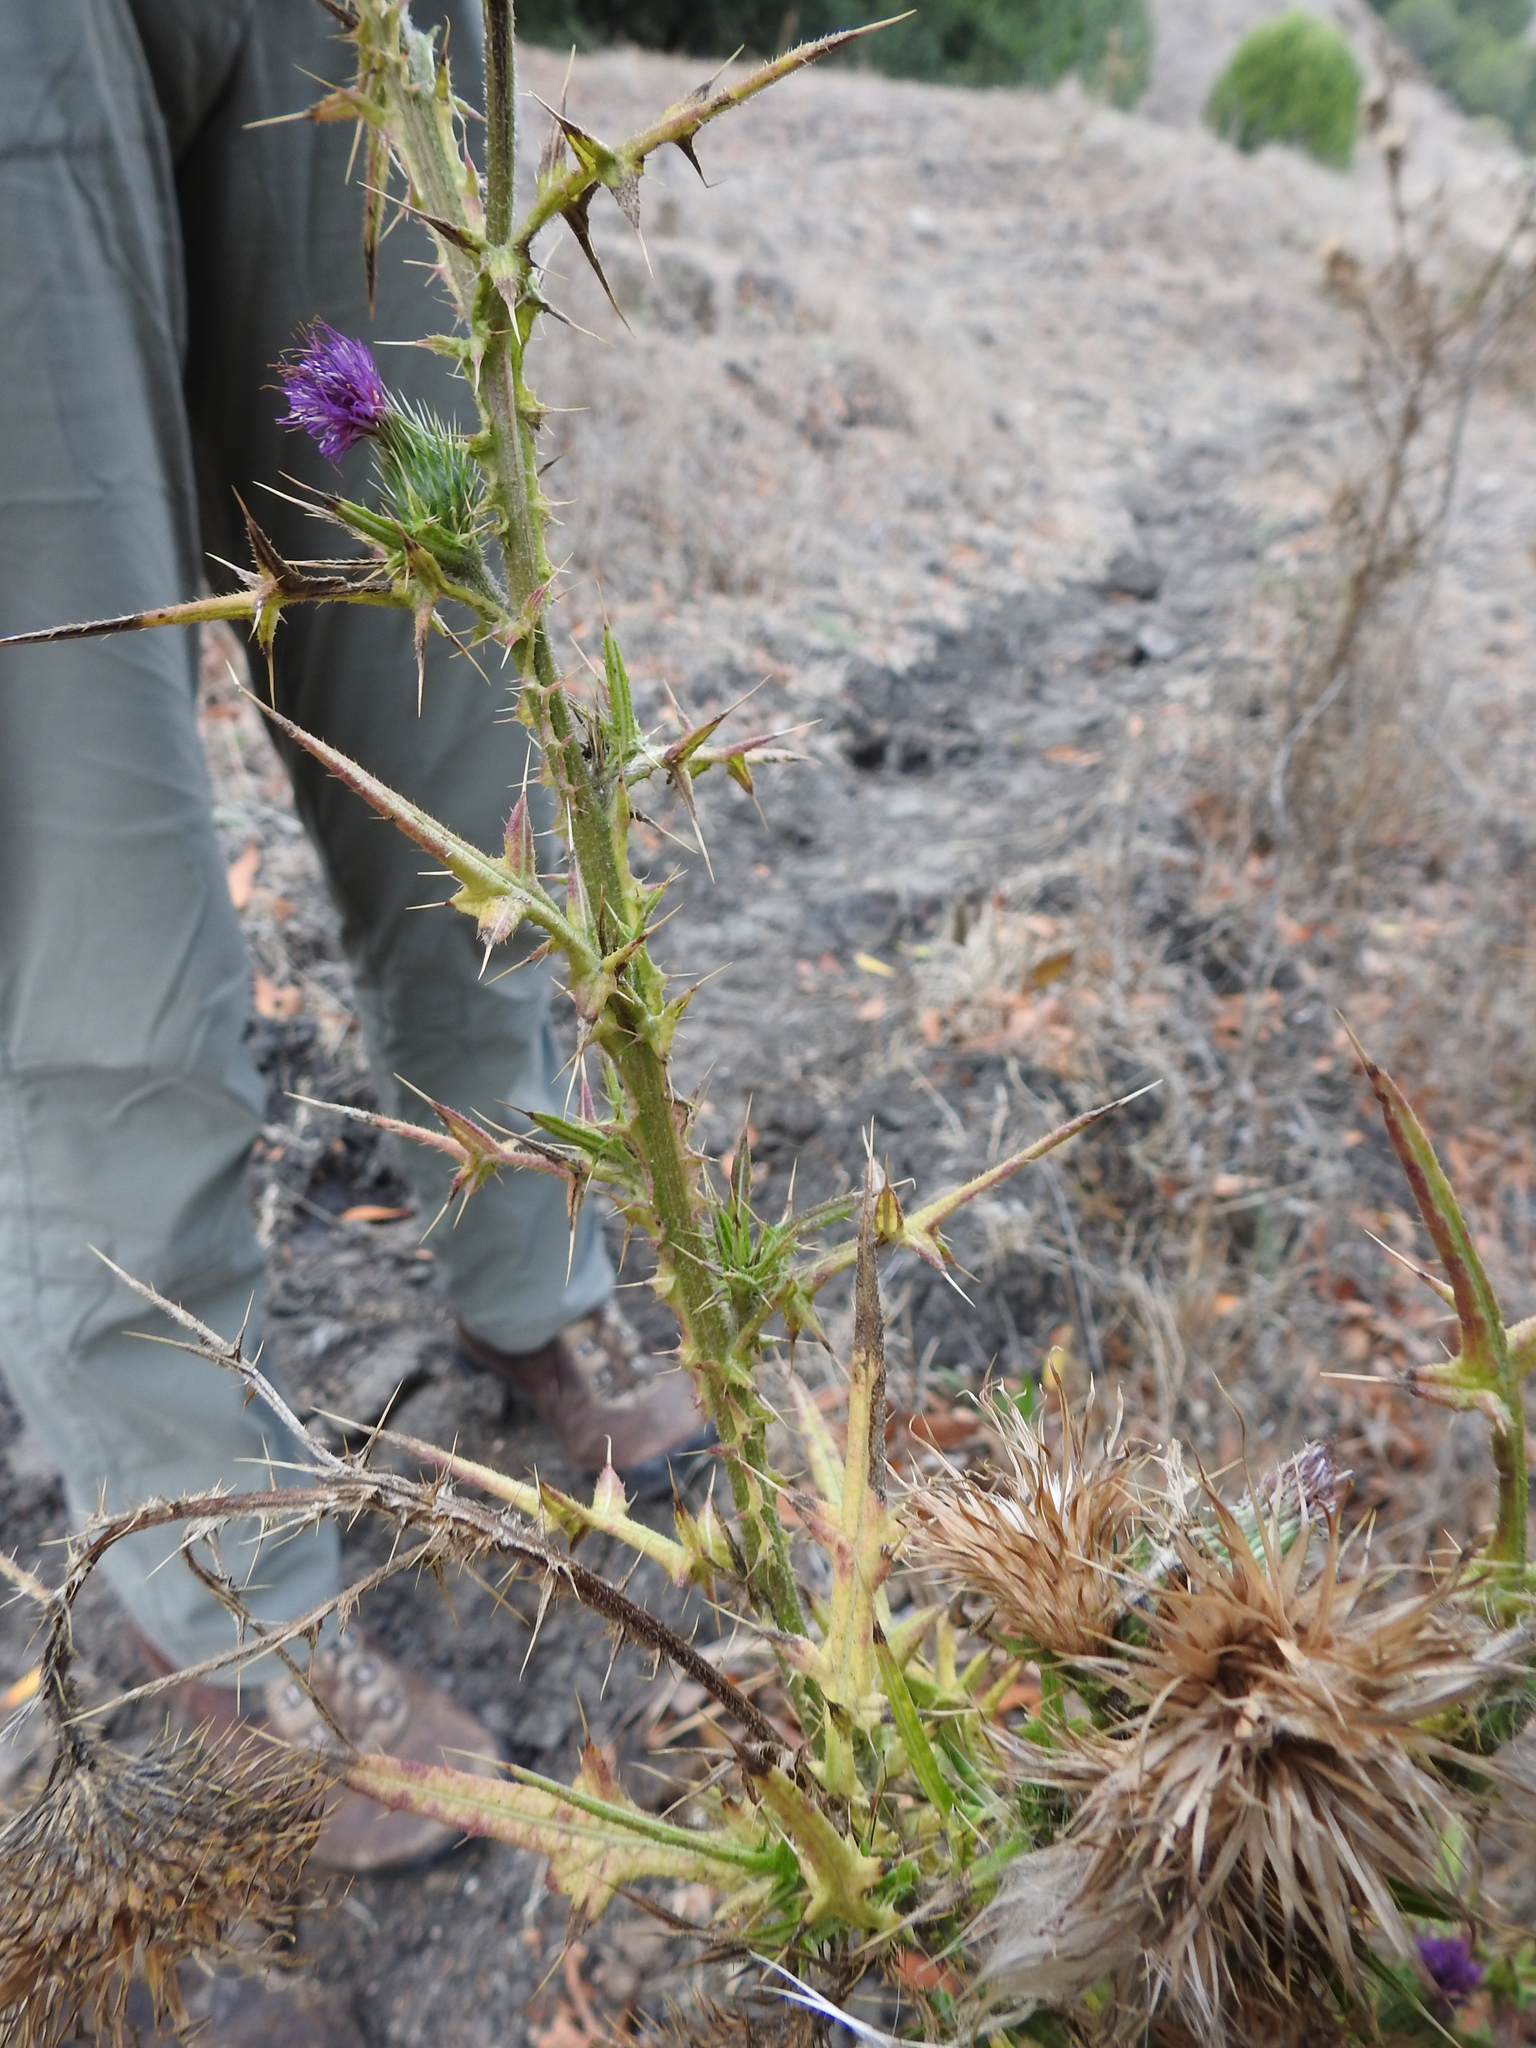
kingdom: Plantae
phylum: Tracheophyta
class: Magnoliopsida
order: Asterales
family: Asteraceae
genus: Cirsium
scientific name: Cirsium vulgare
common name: Bull thistle
